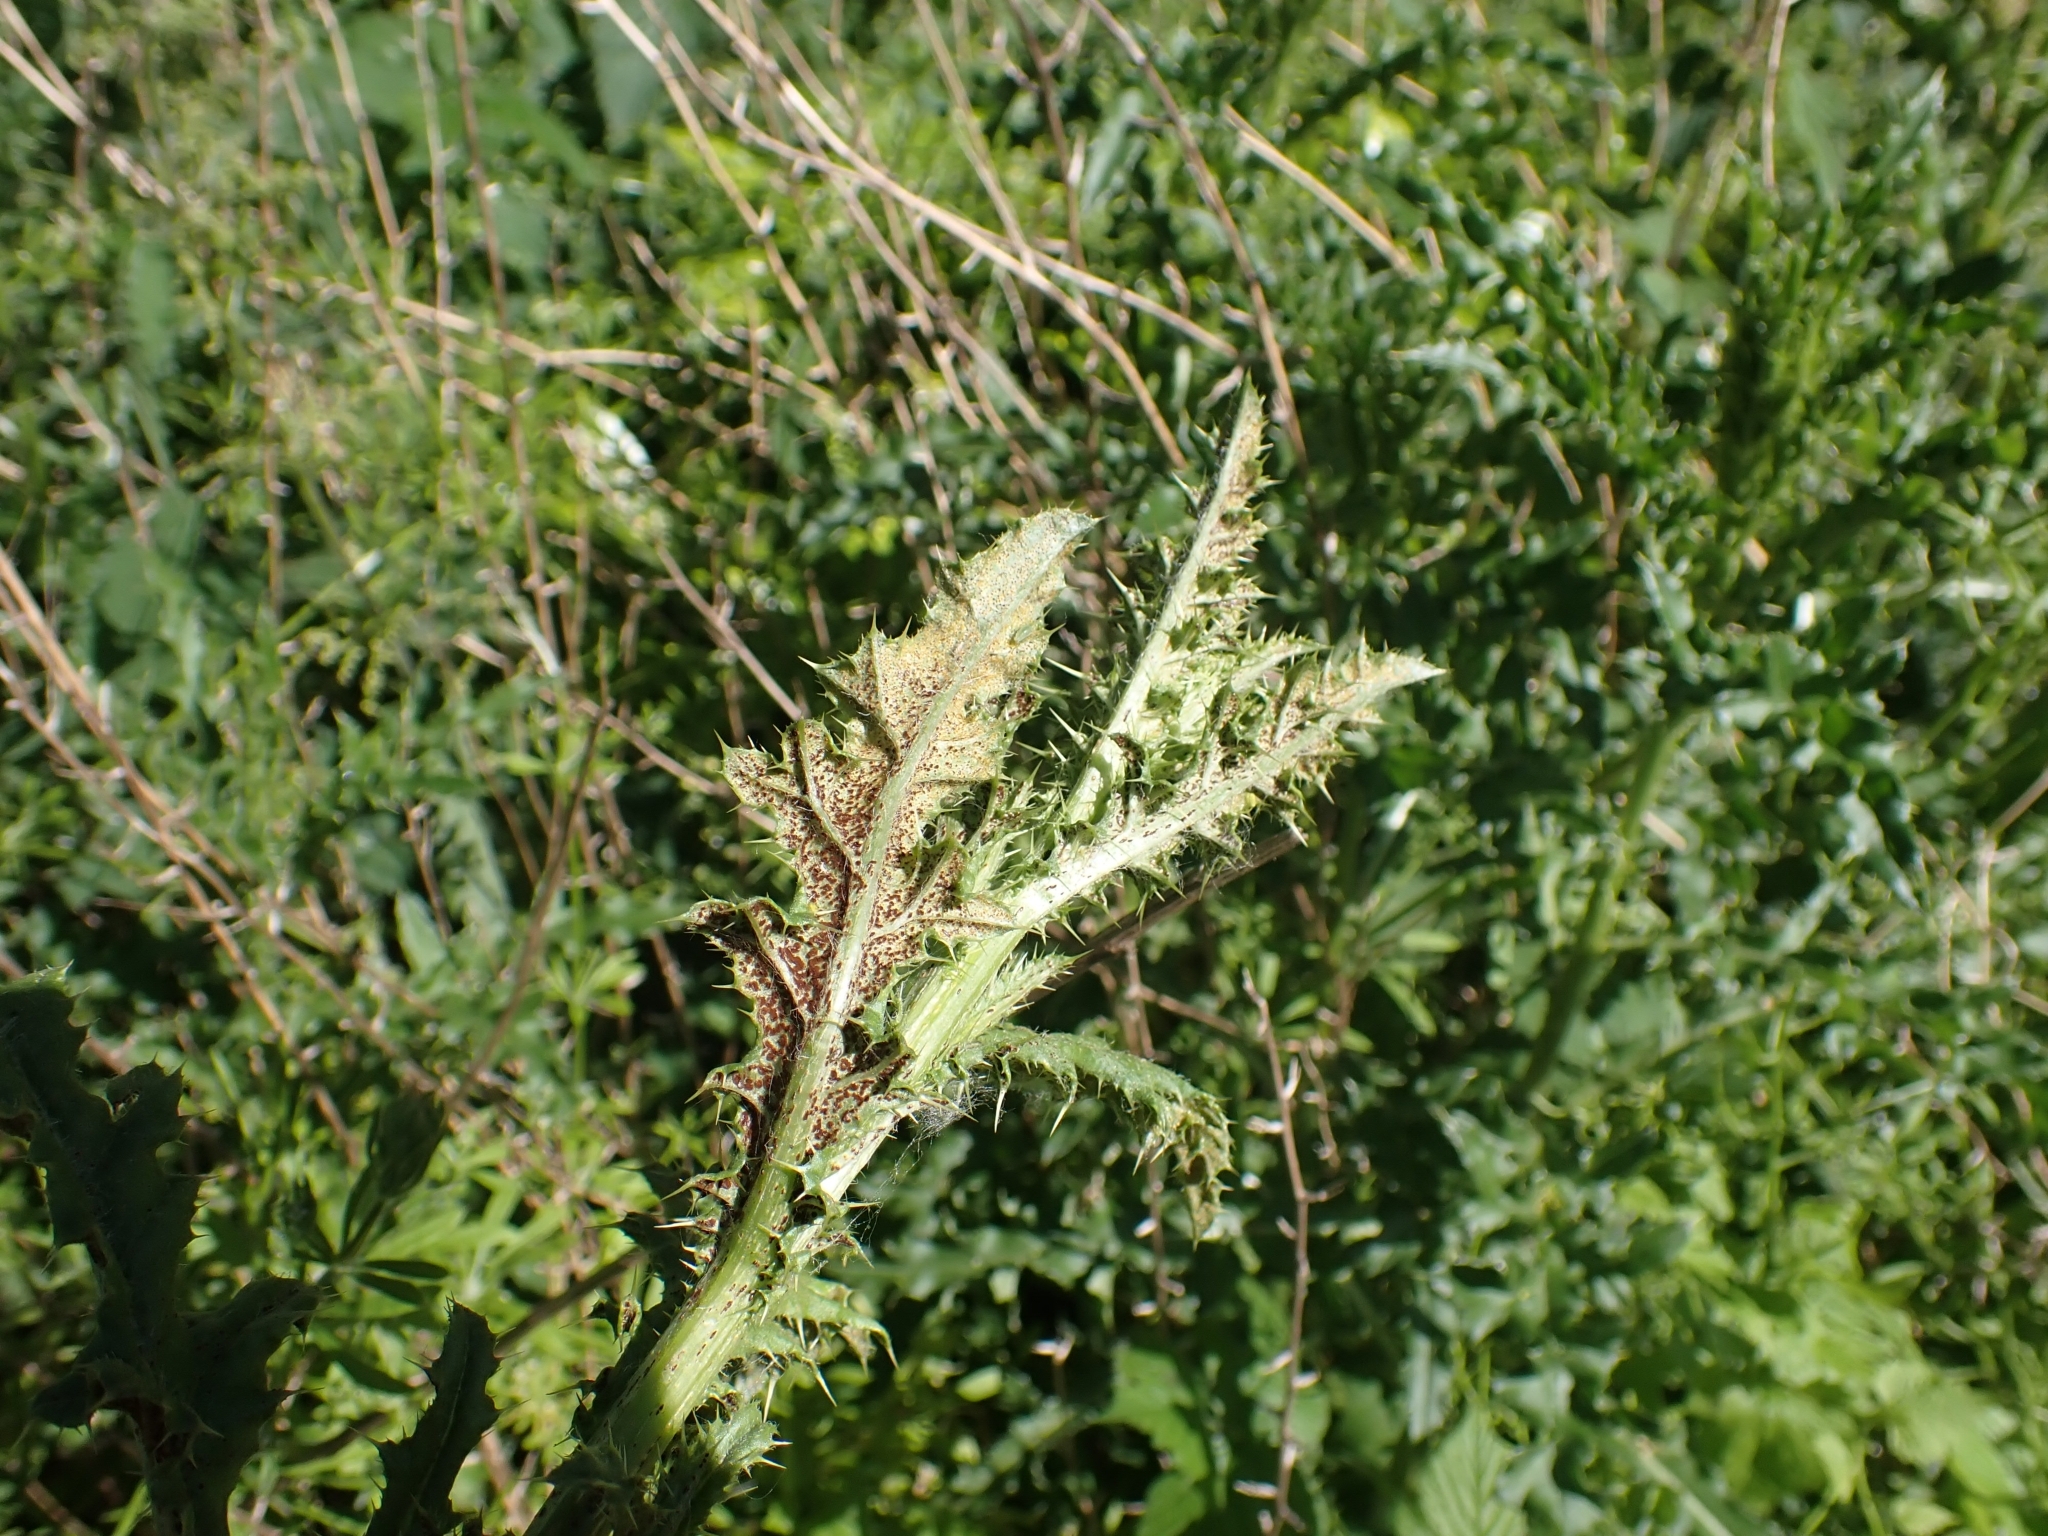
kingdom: Fungi
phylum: Basidiomycota
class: Pucciniomycetes
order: Pucciniales
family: Pucciniaceae
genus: Puccinia
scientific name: Puccinia suaveolens
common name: Thistle rust
